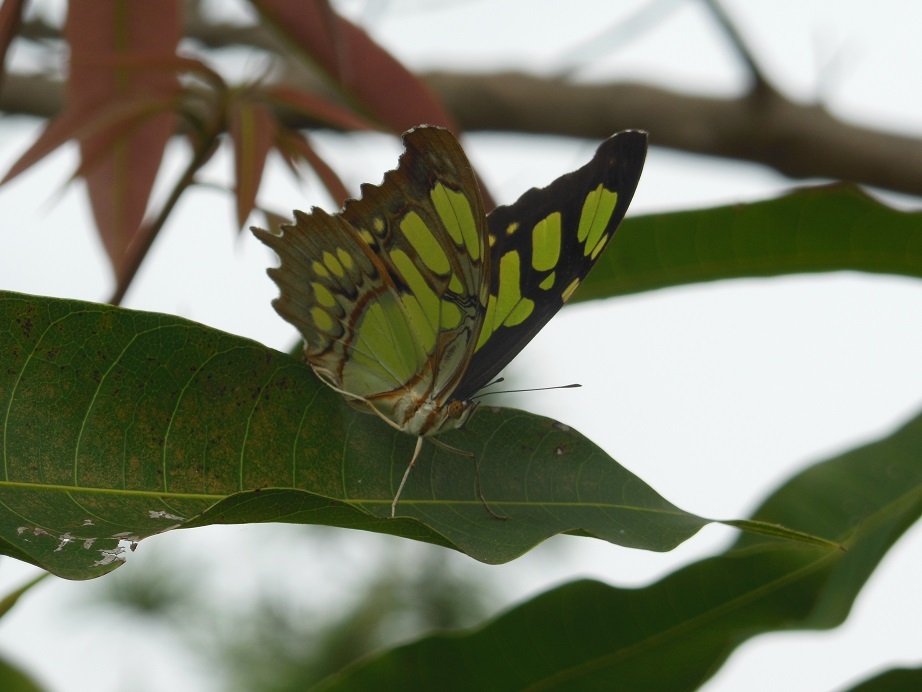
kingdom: Animalia
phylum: Arthropoda
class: Insecta
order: Lepidoptera
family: Nymphalidae
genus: Siproeta
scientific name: Siproeta stelenes
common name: Malachite
